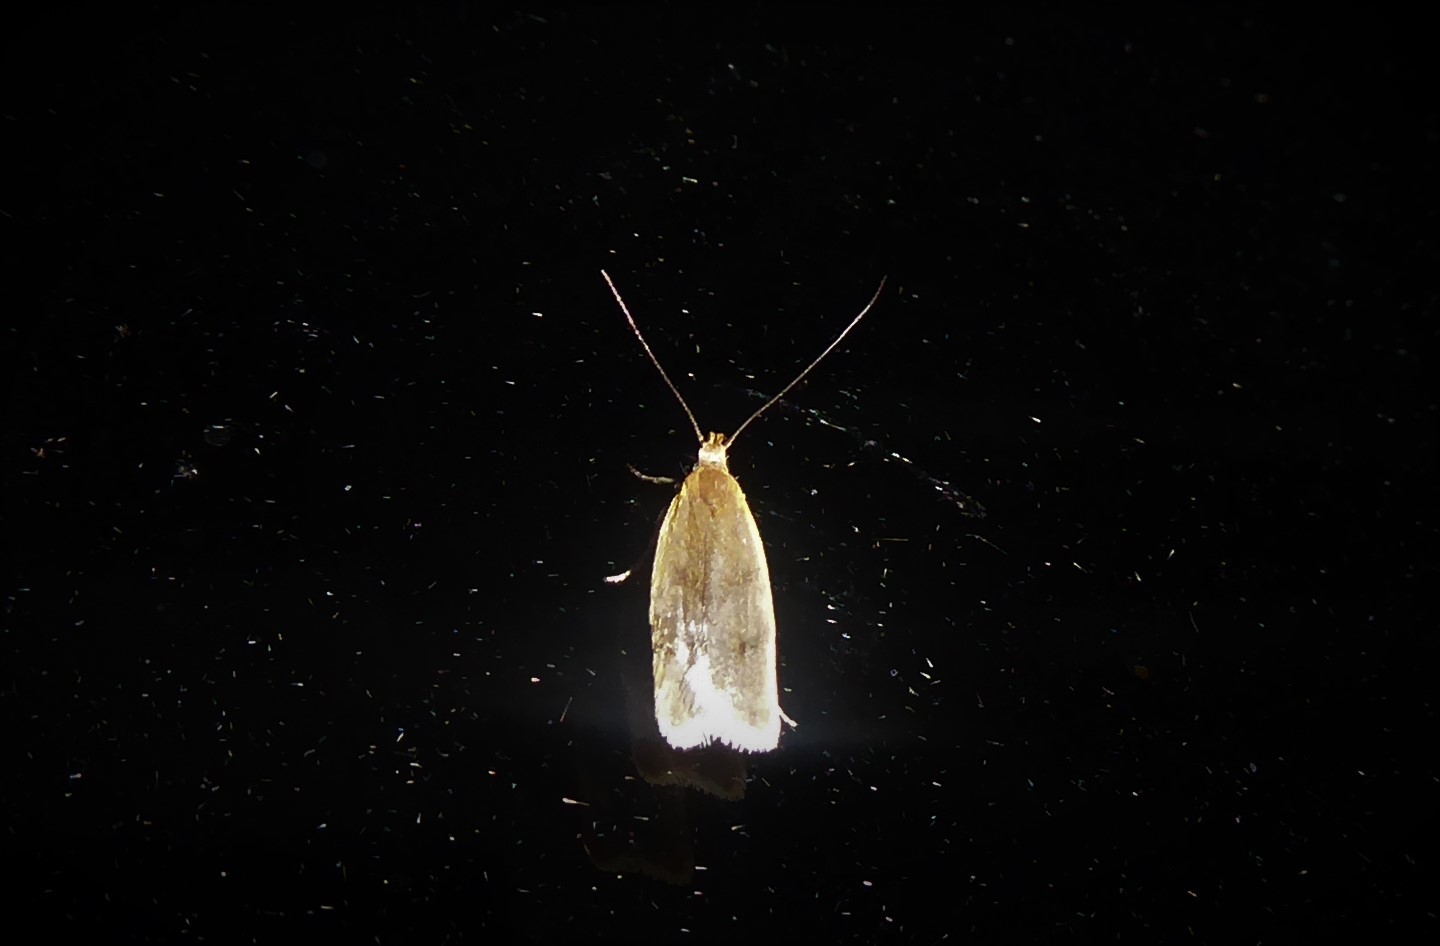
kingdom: Animalia
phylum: Arthropoda
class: Insecta
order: Lepidoptera
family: Oecophoridae
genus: Gymnobathra
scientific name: Gymnobathra parca
